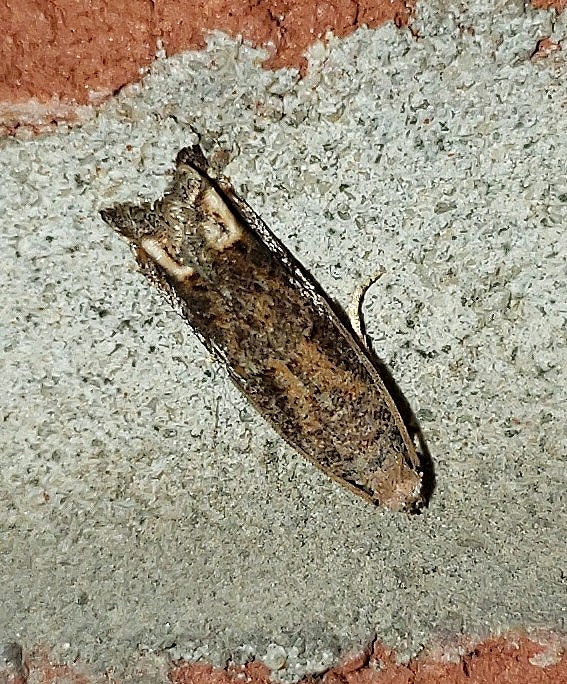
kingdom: Animalia
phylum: Arthropoda
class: Insecta
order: Lepidoptera
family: Tortricidae
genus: Epiblema
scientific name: Epiblema mandana
